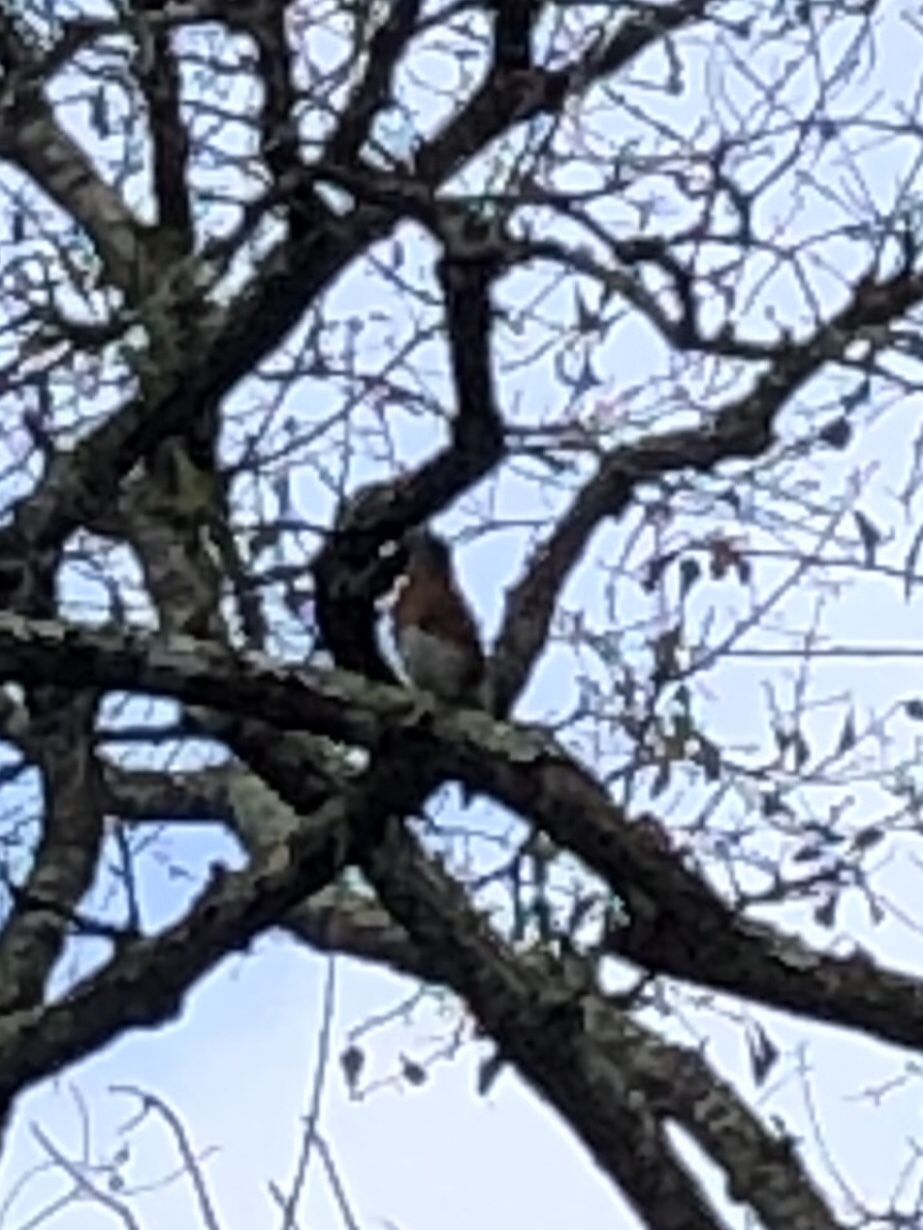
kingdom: Animalia
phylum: Chordata
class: Aves
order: Passeriformes
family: Turdidae
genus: Sialia
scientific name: Sialia sialis
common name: Eastern bluebird
